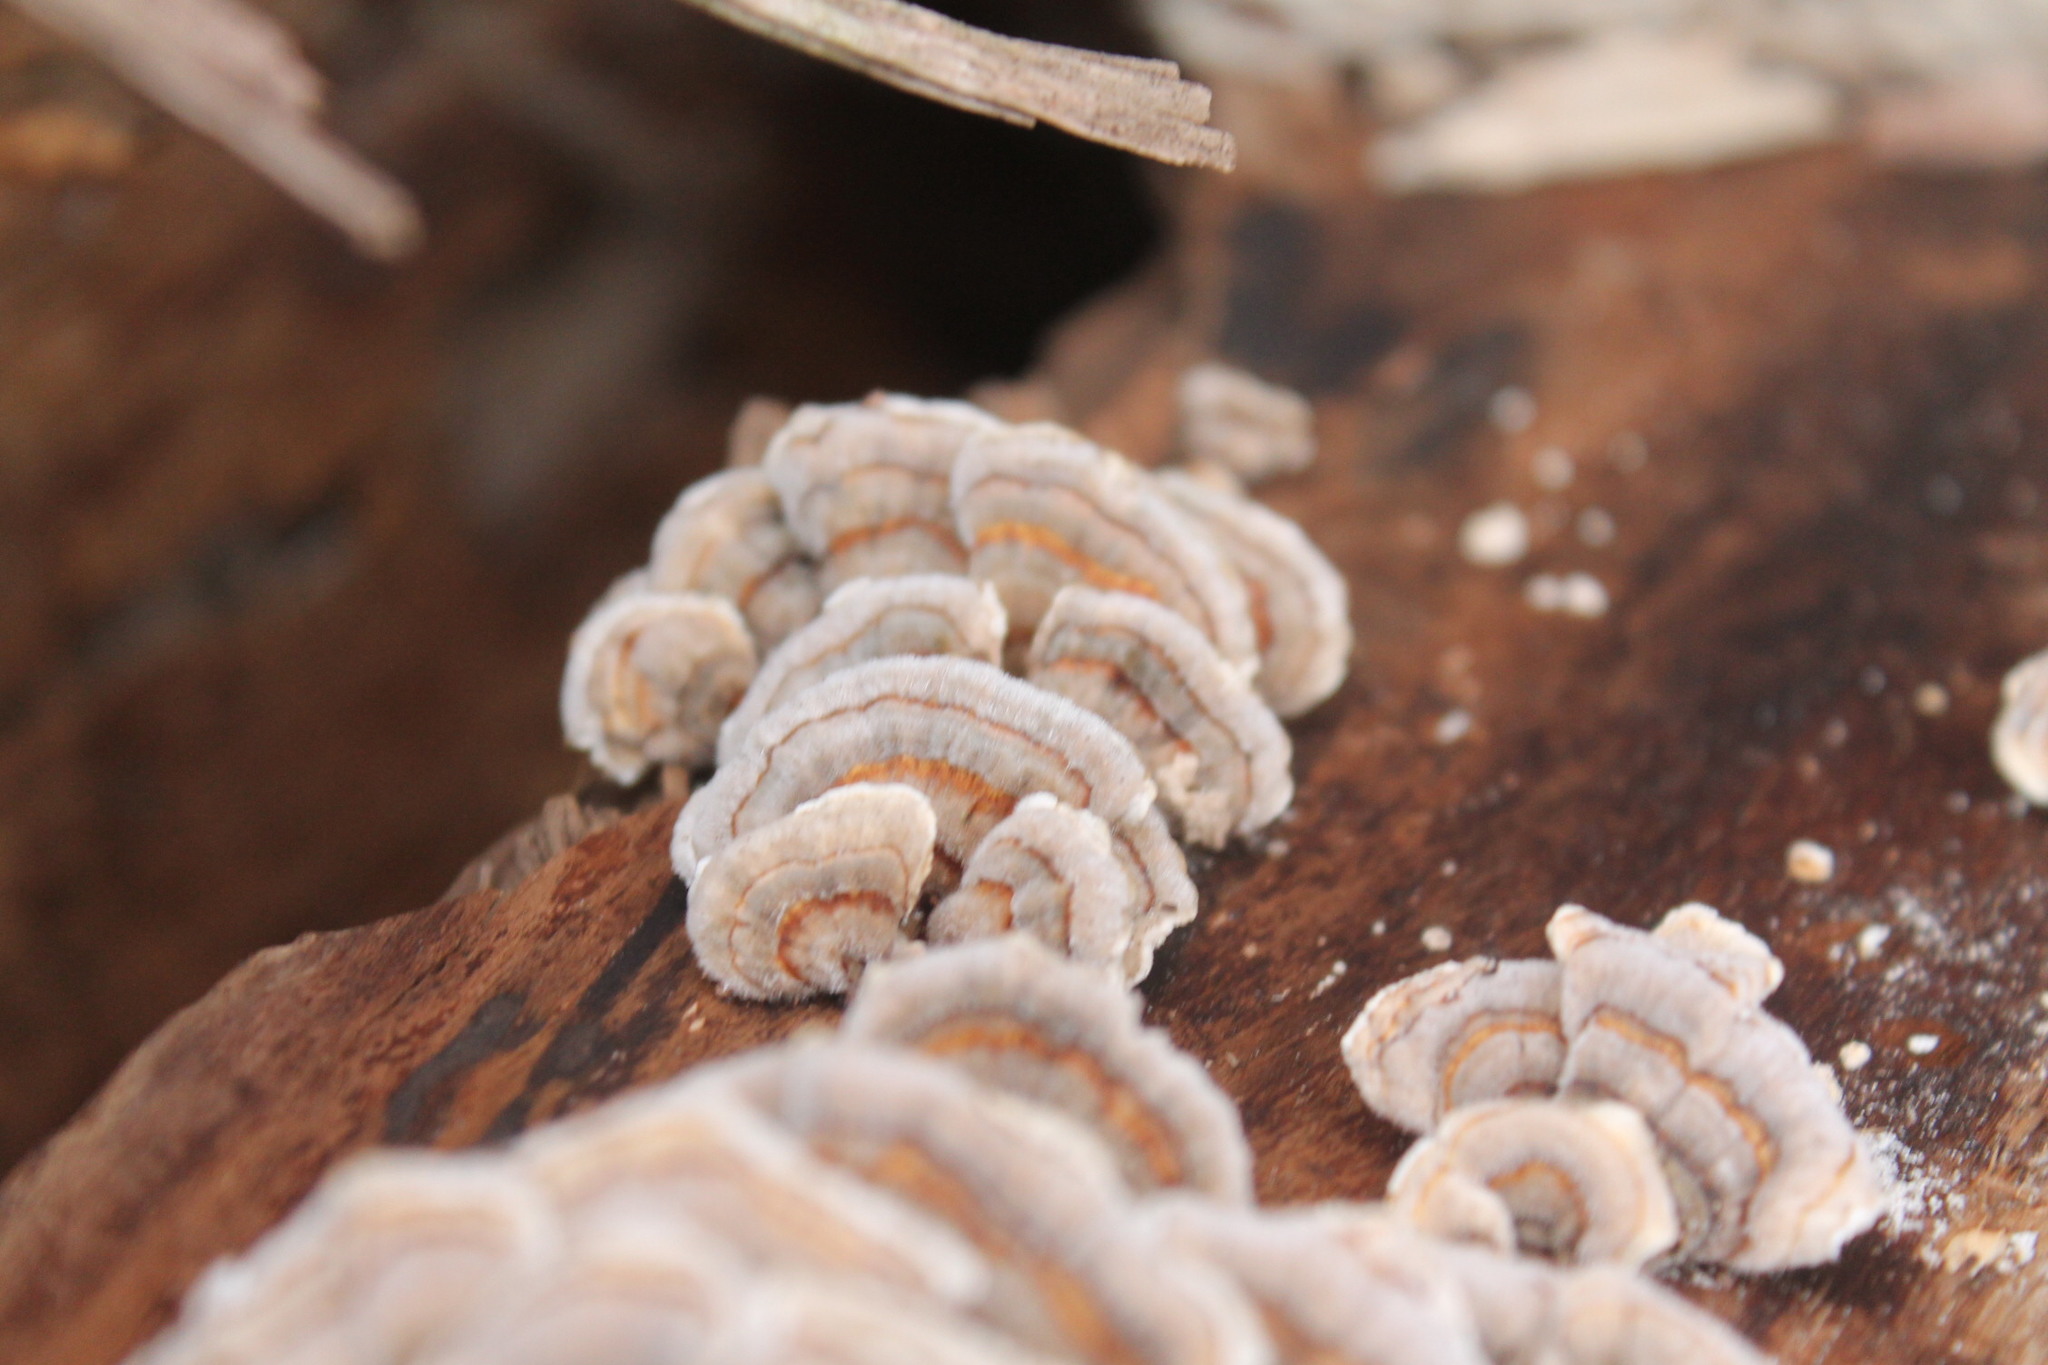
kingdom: Fungi
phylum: Basidiomycota
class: Agaricomycetes
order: Polyporales
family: Polyporaceae
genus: Trametes
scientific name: Trametes versicolor
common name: Turkeytail
